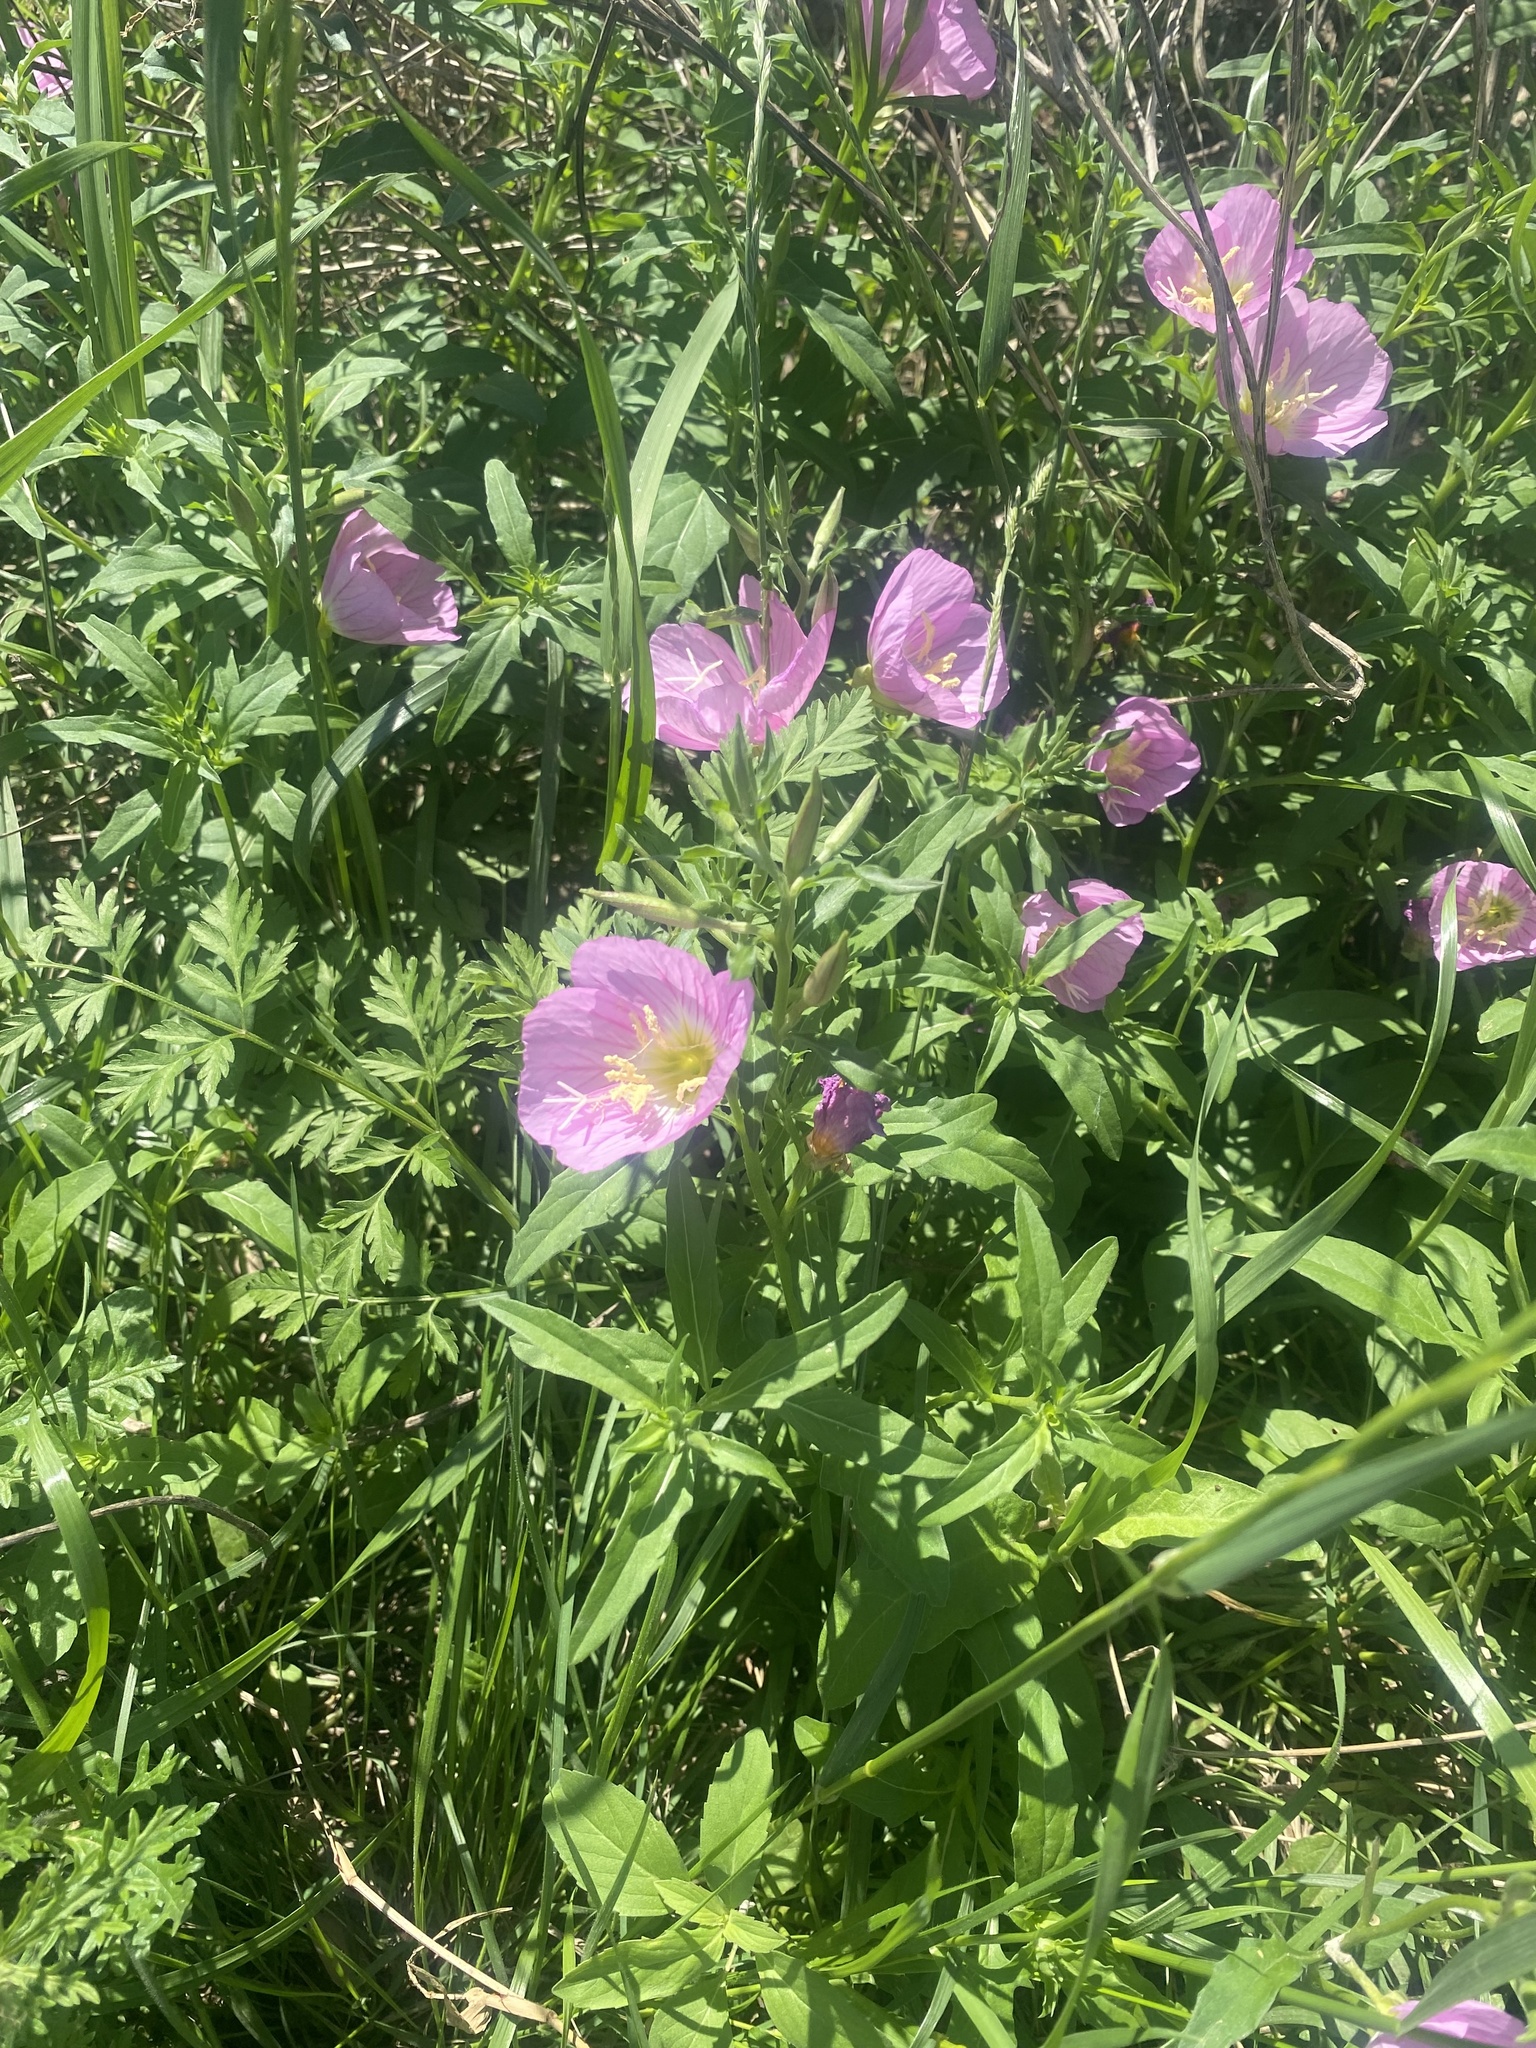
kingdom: Plantae
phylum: Tracheophyta
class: Magnoliopsida
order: Myrtales
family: Onagraceae
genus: Oenothera
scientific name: Oenothera speciosa
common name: White evening-primrose
